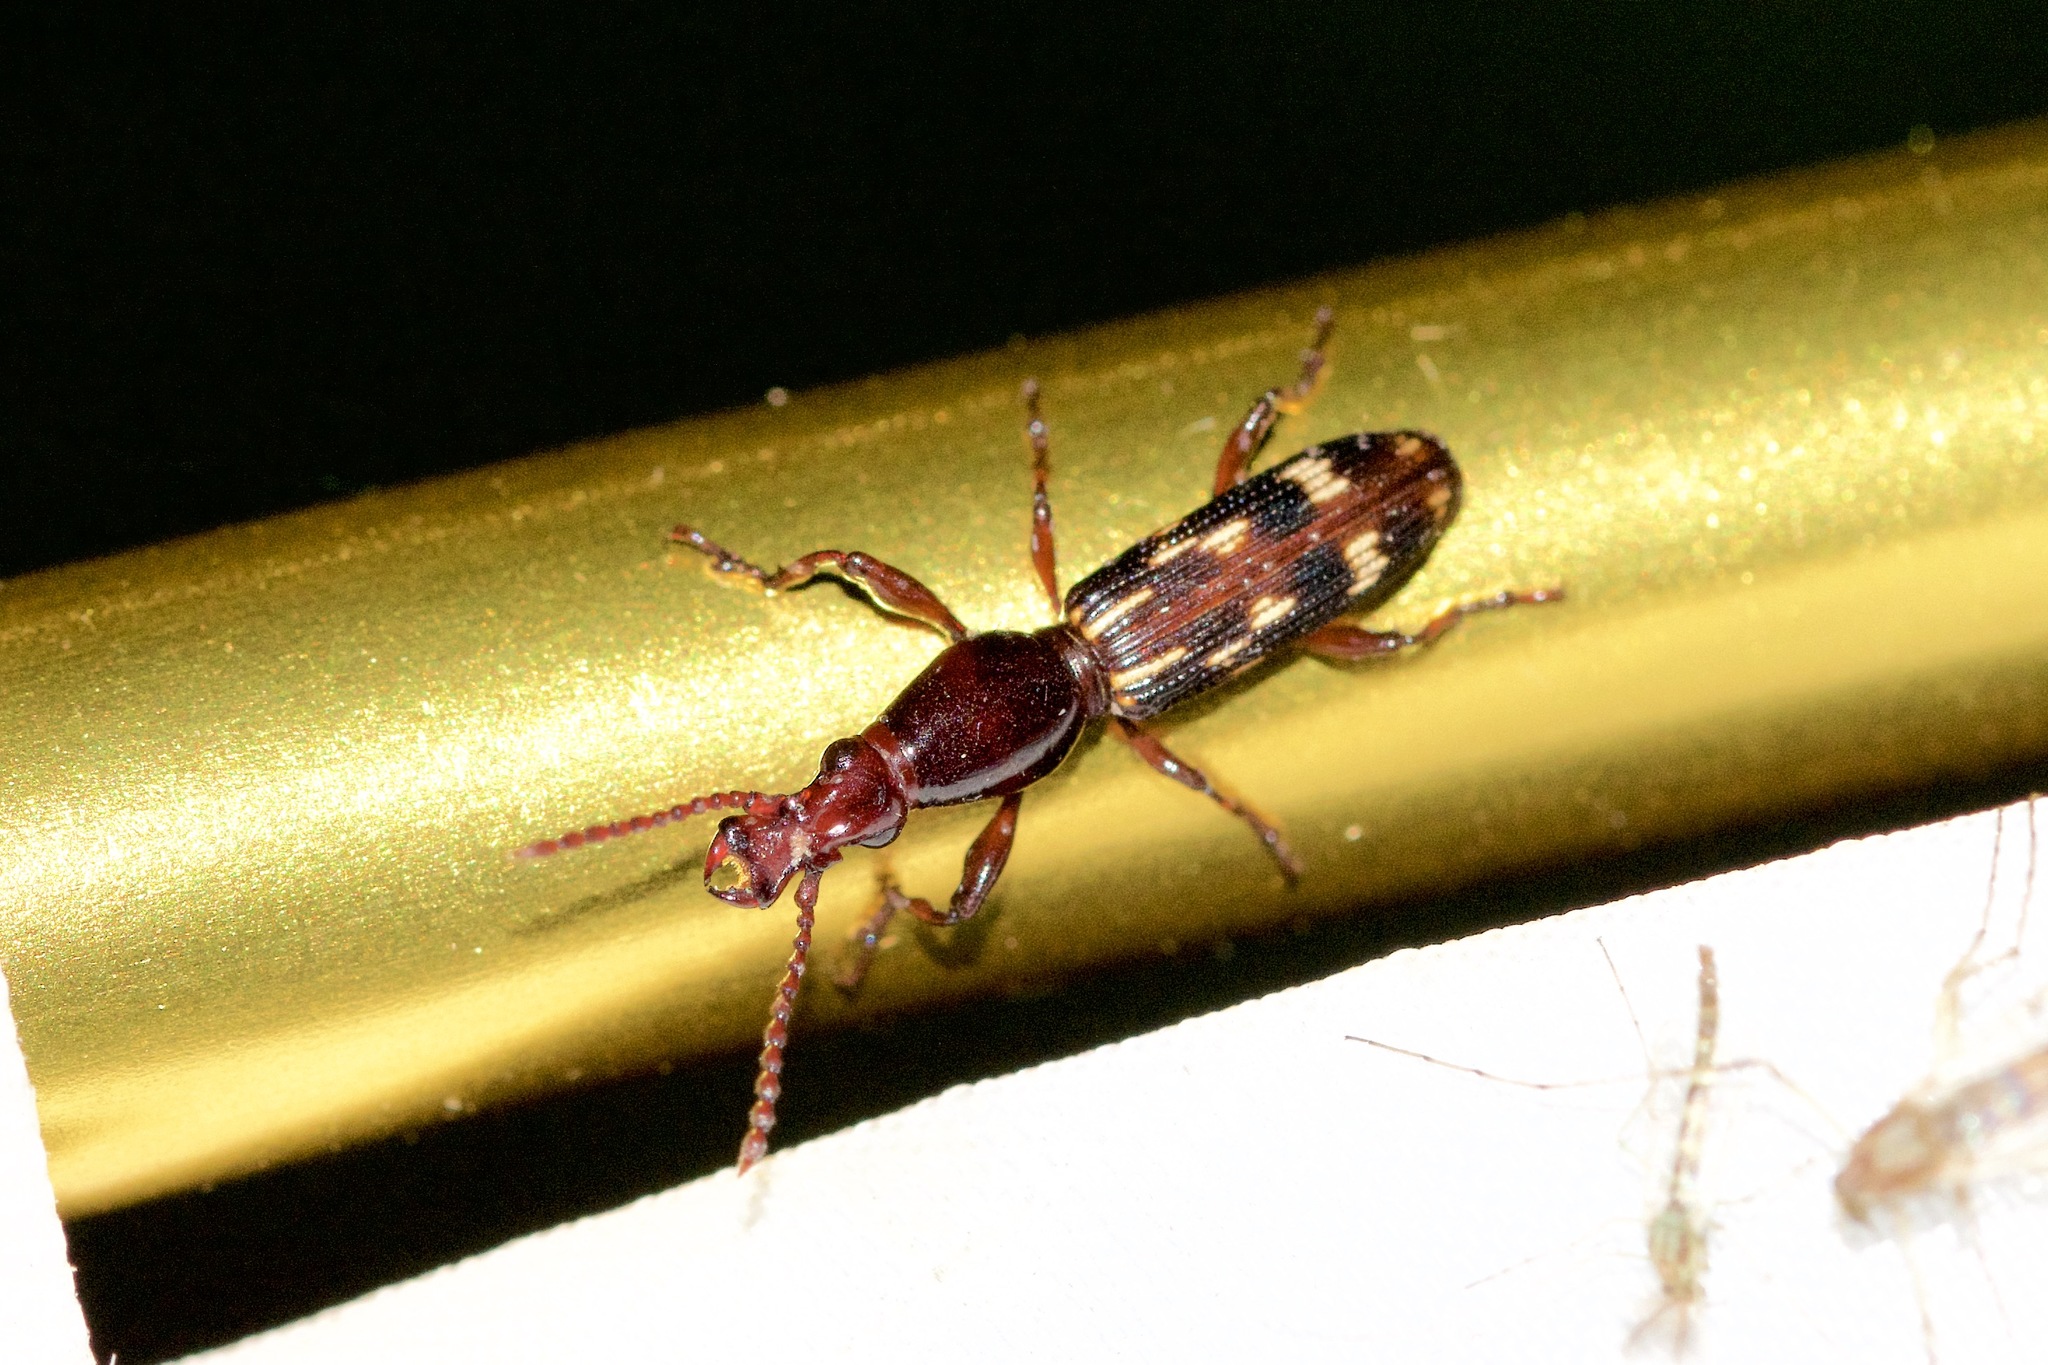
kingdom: Animalia
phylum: Arthropoda
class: Insecta
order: Coleoptera
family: Brentidae
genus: Arrenodes
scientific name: Arrenodes minutus
